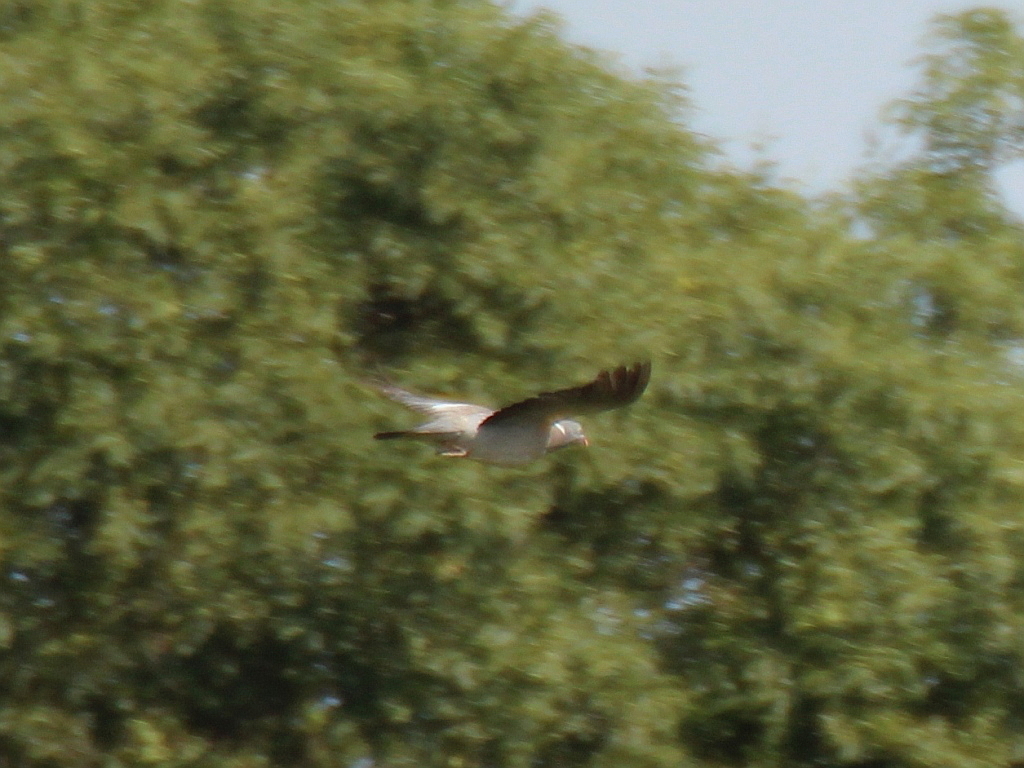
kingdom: Animalia
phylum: Chordata
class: Aves
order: Columbiformes
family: Columbidae
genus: Columba
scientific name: Columba palumbus
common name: Common wood pigeon
